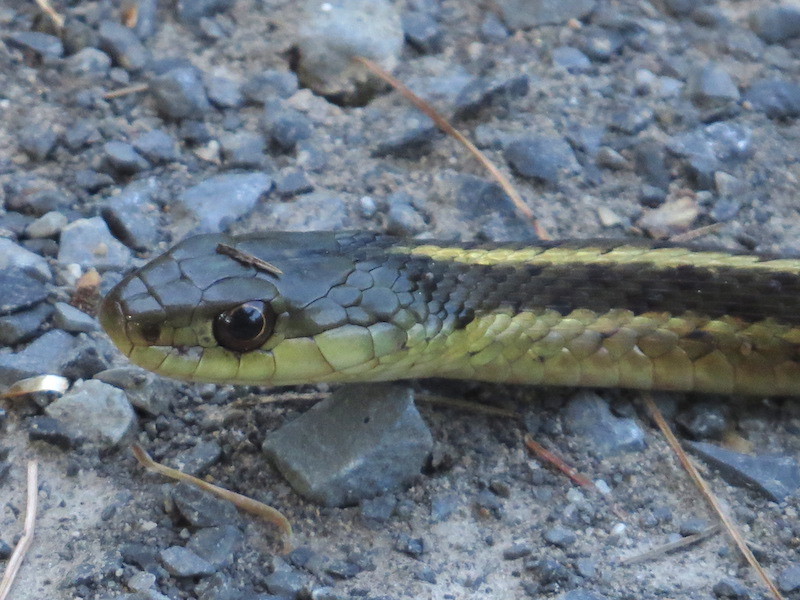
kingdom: Animalia
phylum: Chordata
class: Squamata
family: Colubridae
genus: Thamnophis
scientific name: Thamnophis sirtalis
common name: Common garter snake
